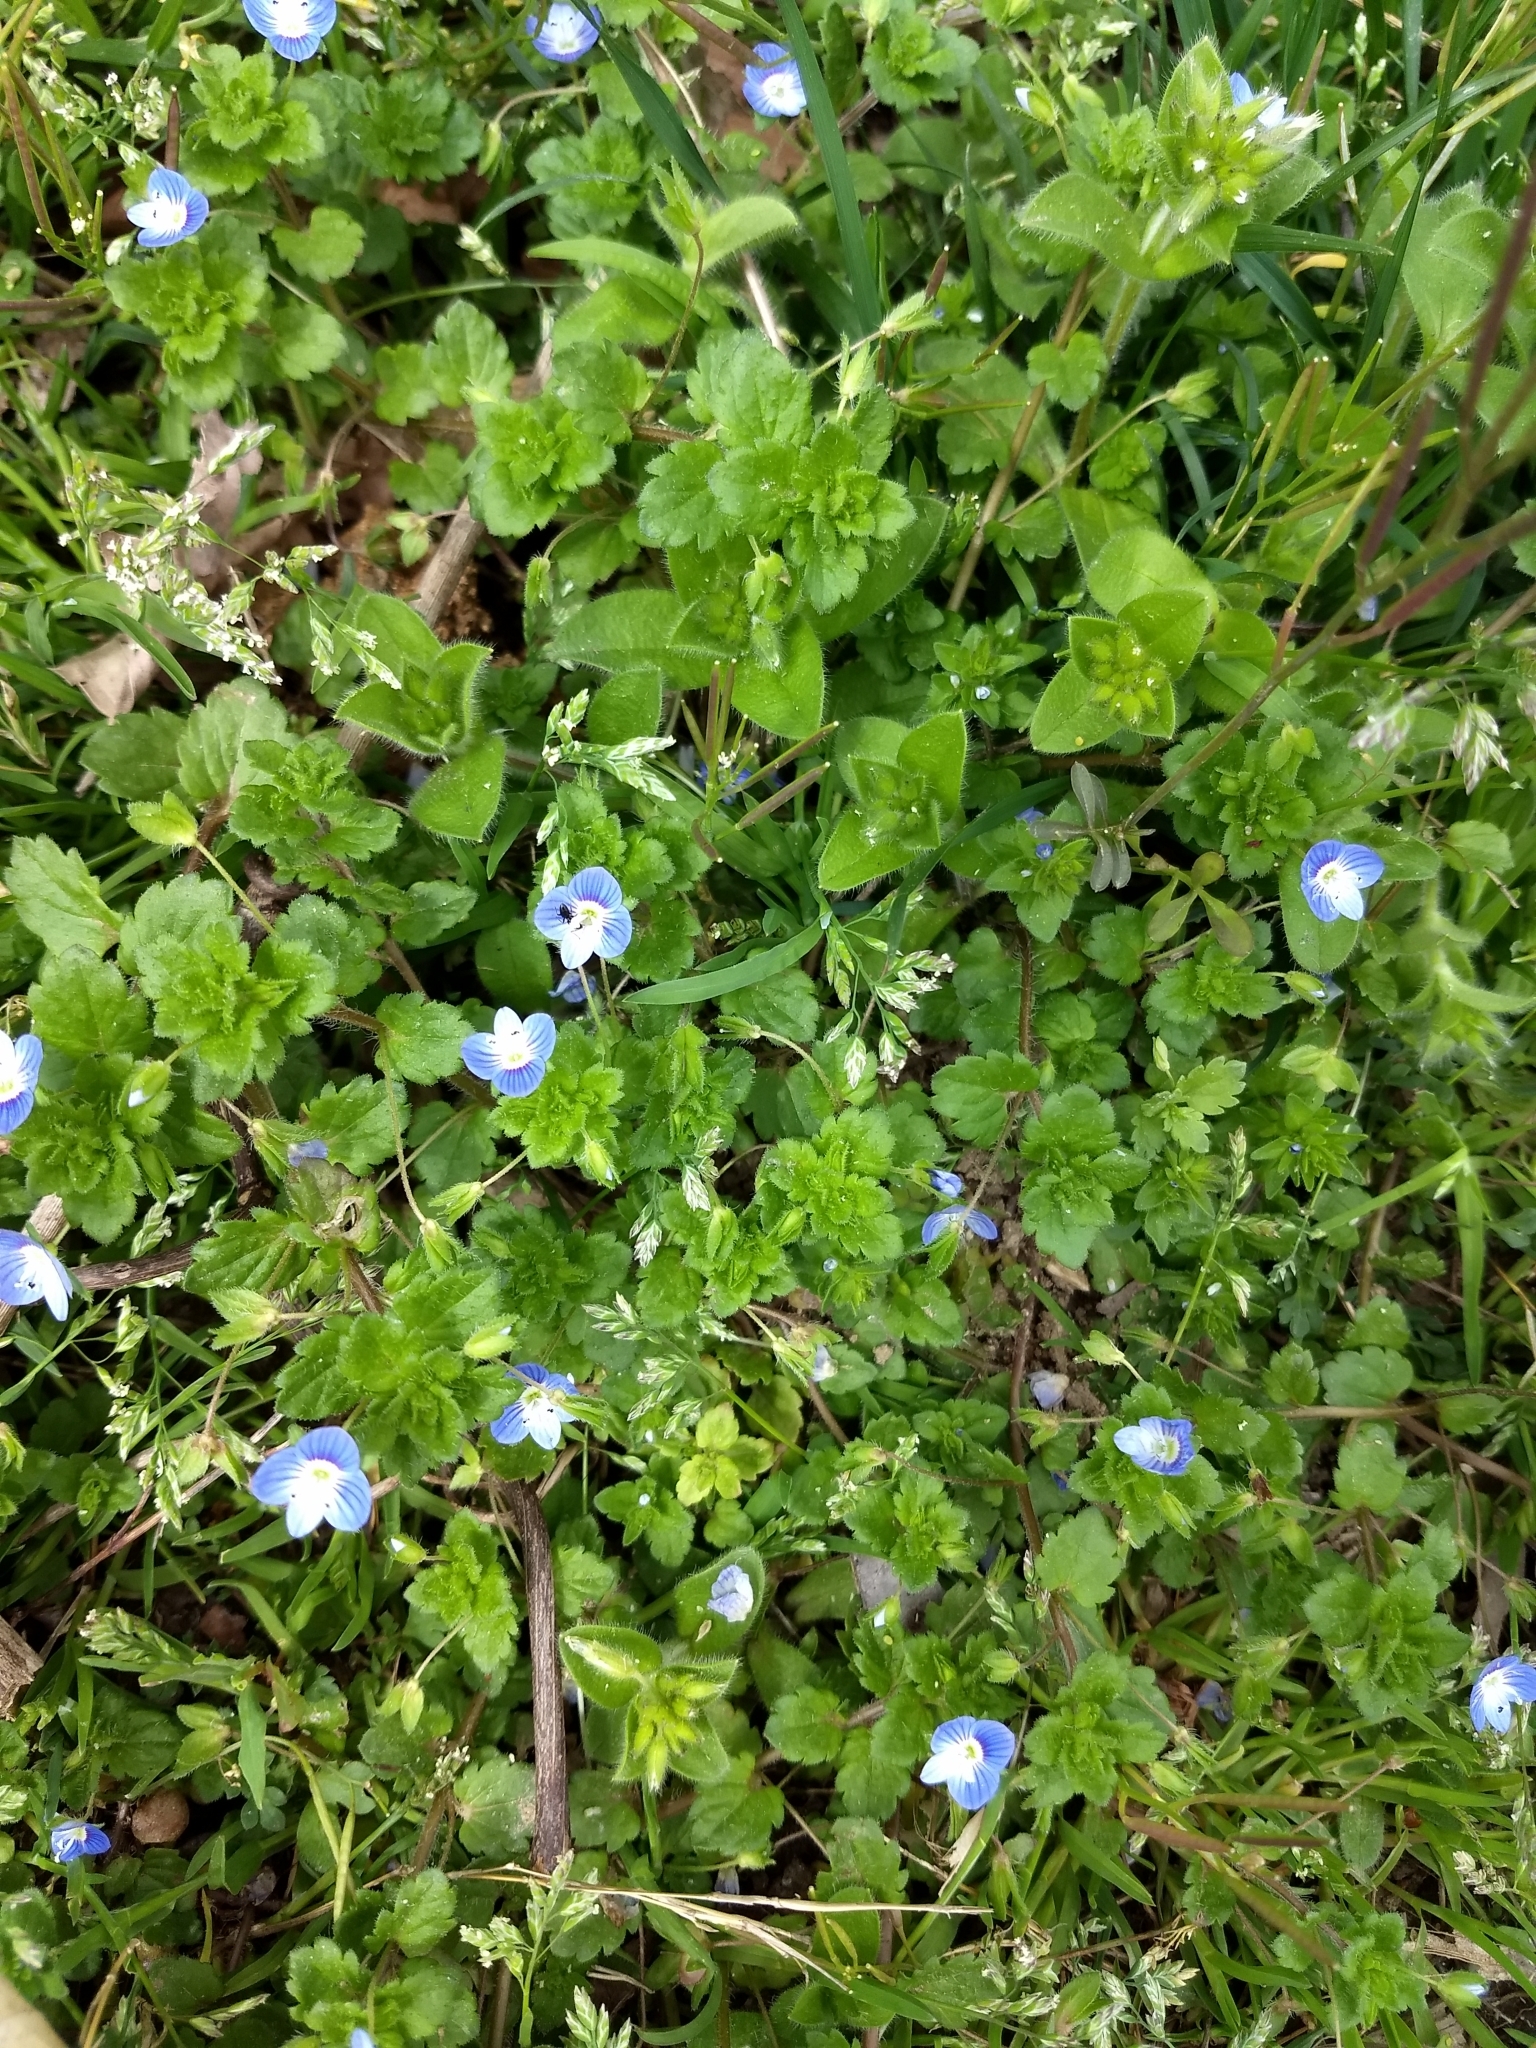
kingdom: Plantae
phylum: Tracheophyta
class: Magnoliopsida
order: Lamiales
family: Plantaginaceae
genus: Veronica
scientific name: Veronica persica
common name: Common field-speedwell
